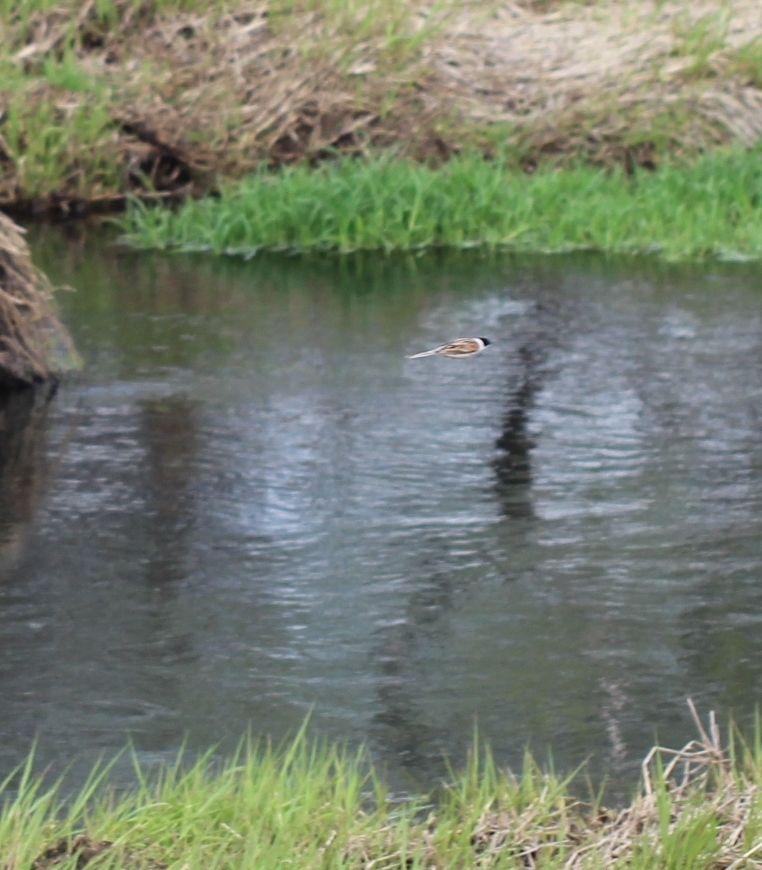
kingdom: Animalia
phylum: Chordata
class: Aves
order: Passeriformes
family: Emberizidae
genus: Emberiza
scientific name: Emberiza schoeniclus
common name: Reed bunting
